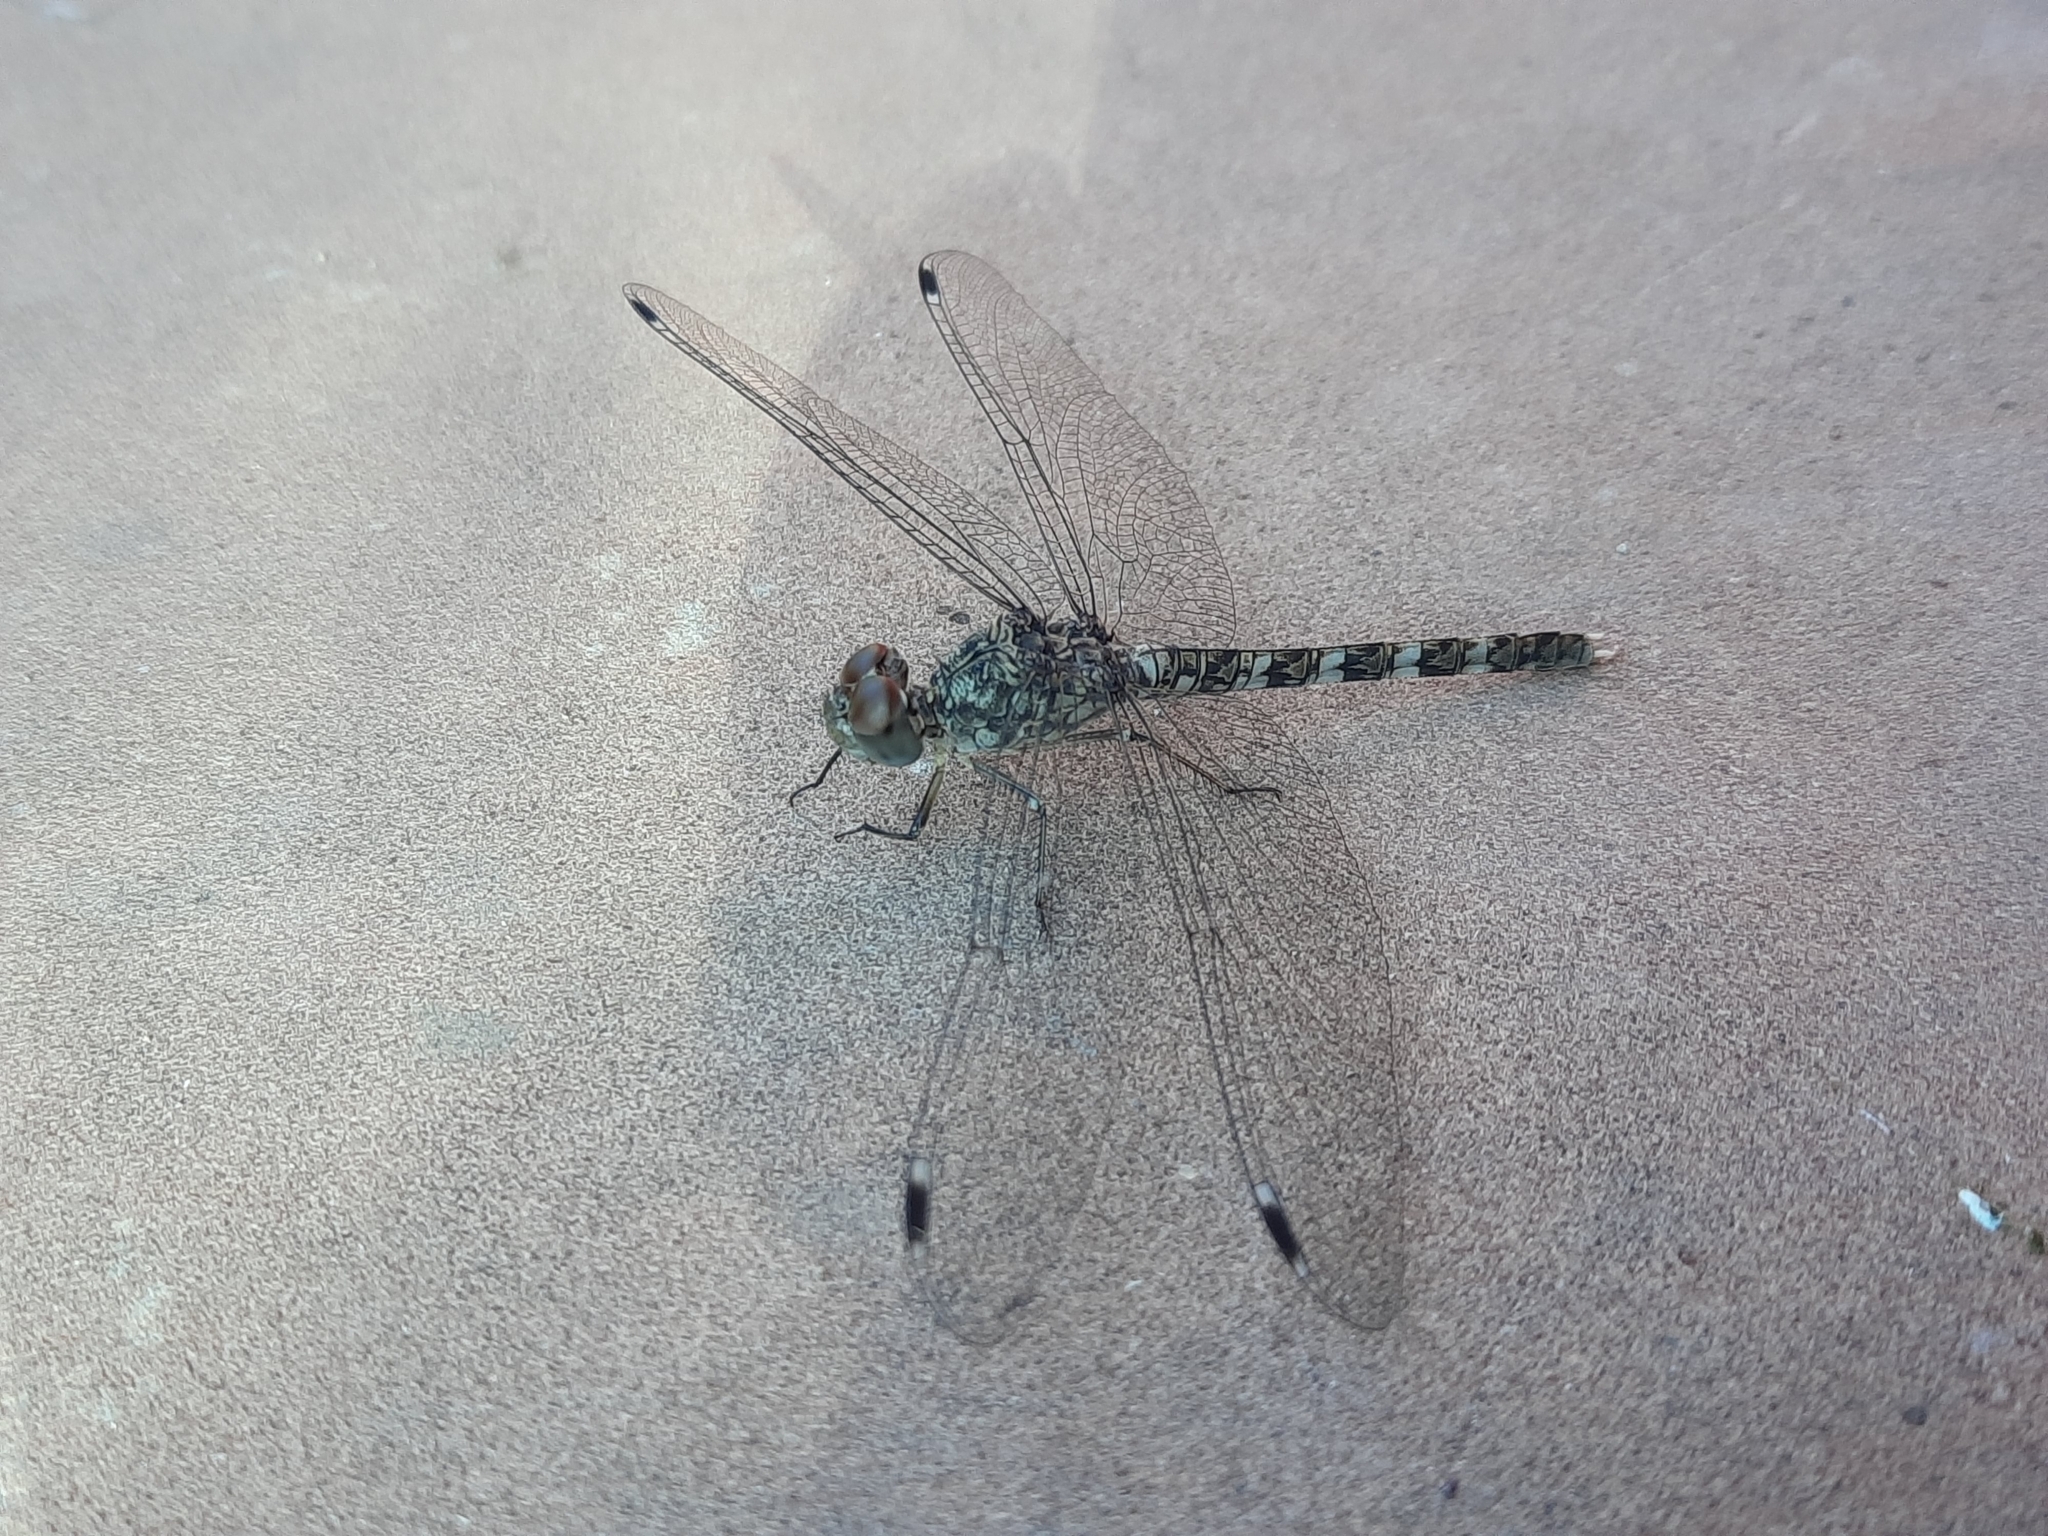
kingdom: Animalia
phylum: Arthropoda
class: Insecta
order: Odonata
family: Libellulidae
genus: Bradinopyga
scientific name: Bradinopyga geminata
